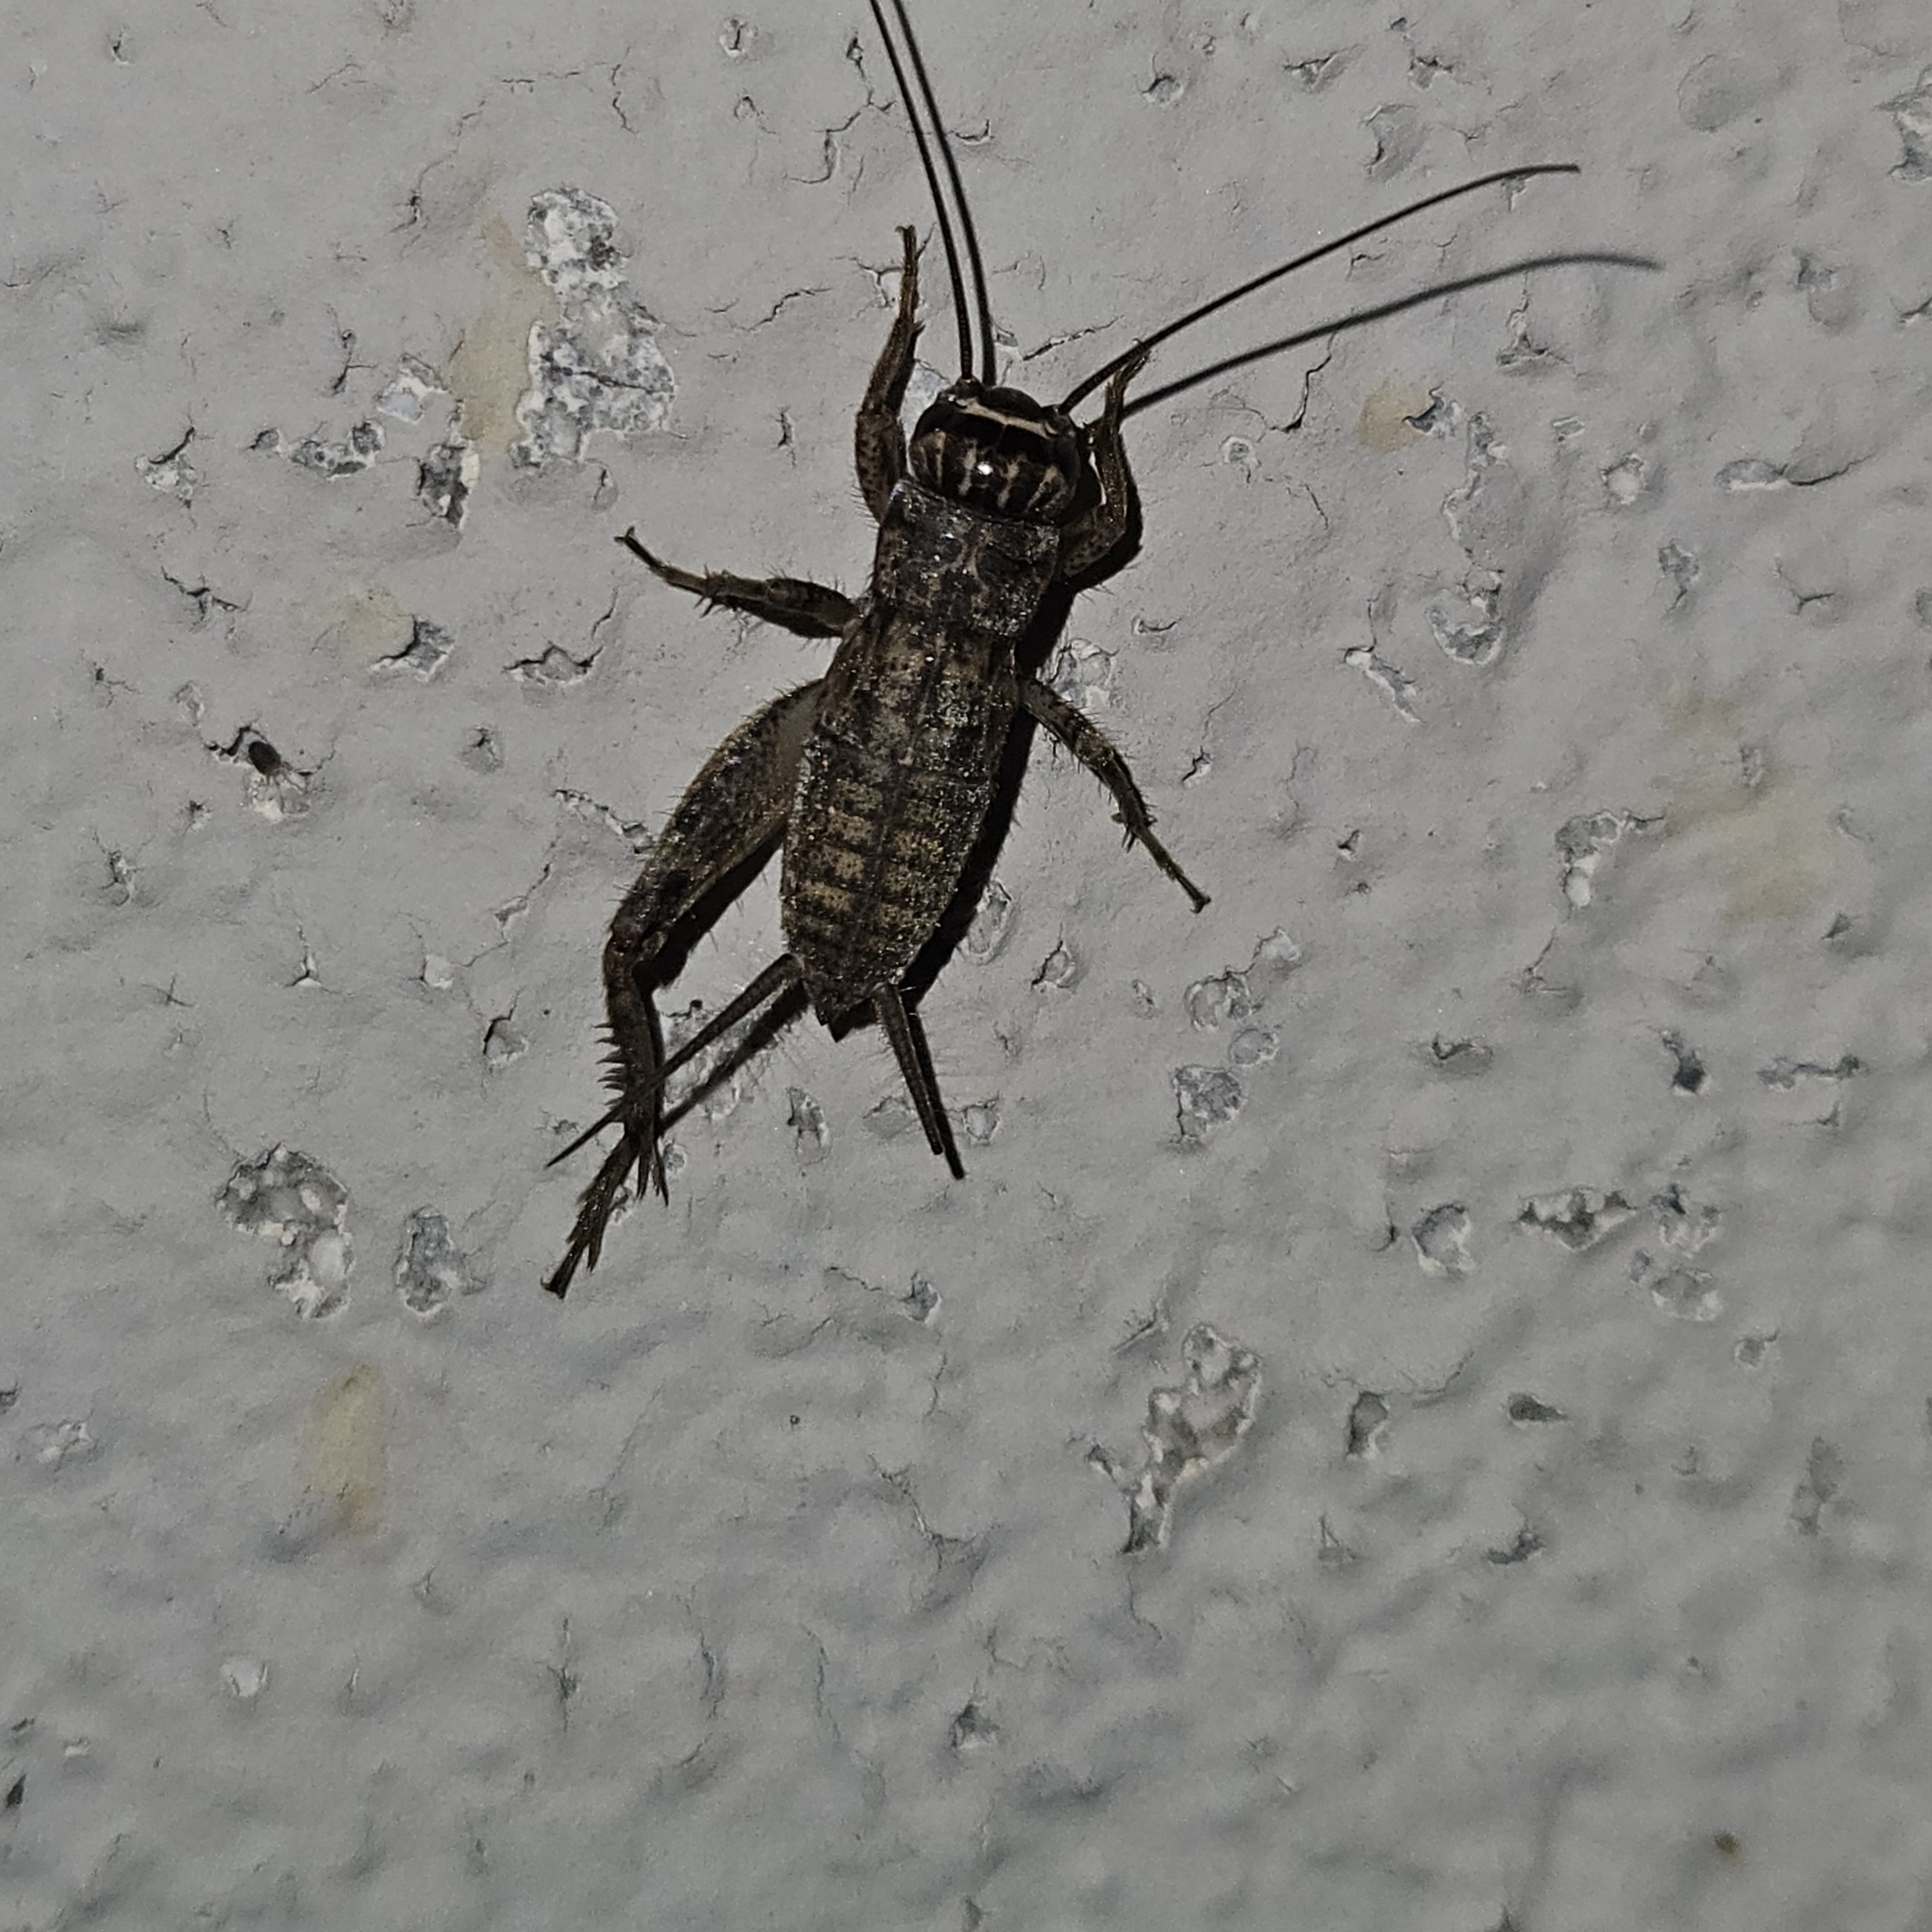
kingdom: Animalia
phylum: Arthropoda
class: Insecta
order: Orthoptera
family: Gryllidae
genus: Eumodicogryllus
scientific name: Eumodicogryllus bordigalensis
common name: Bordeaux cricket
